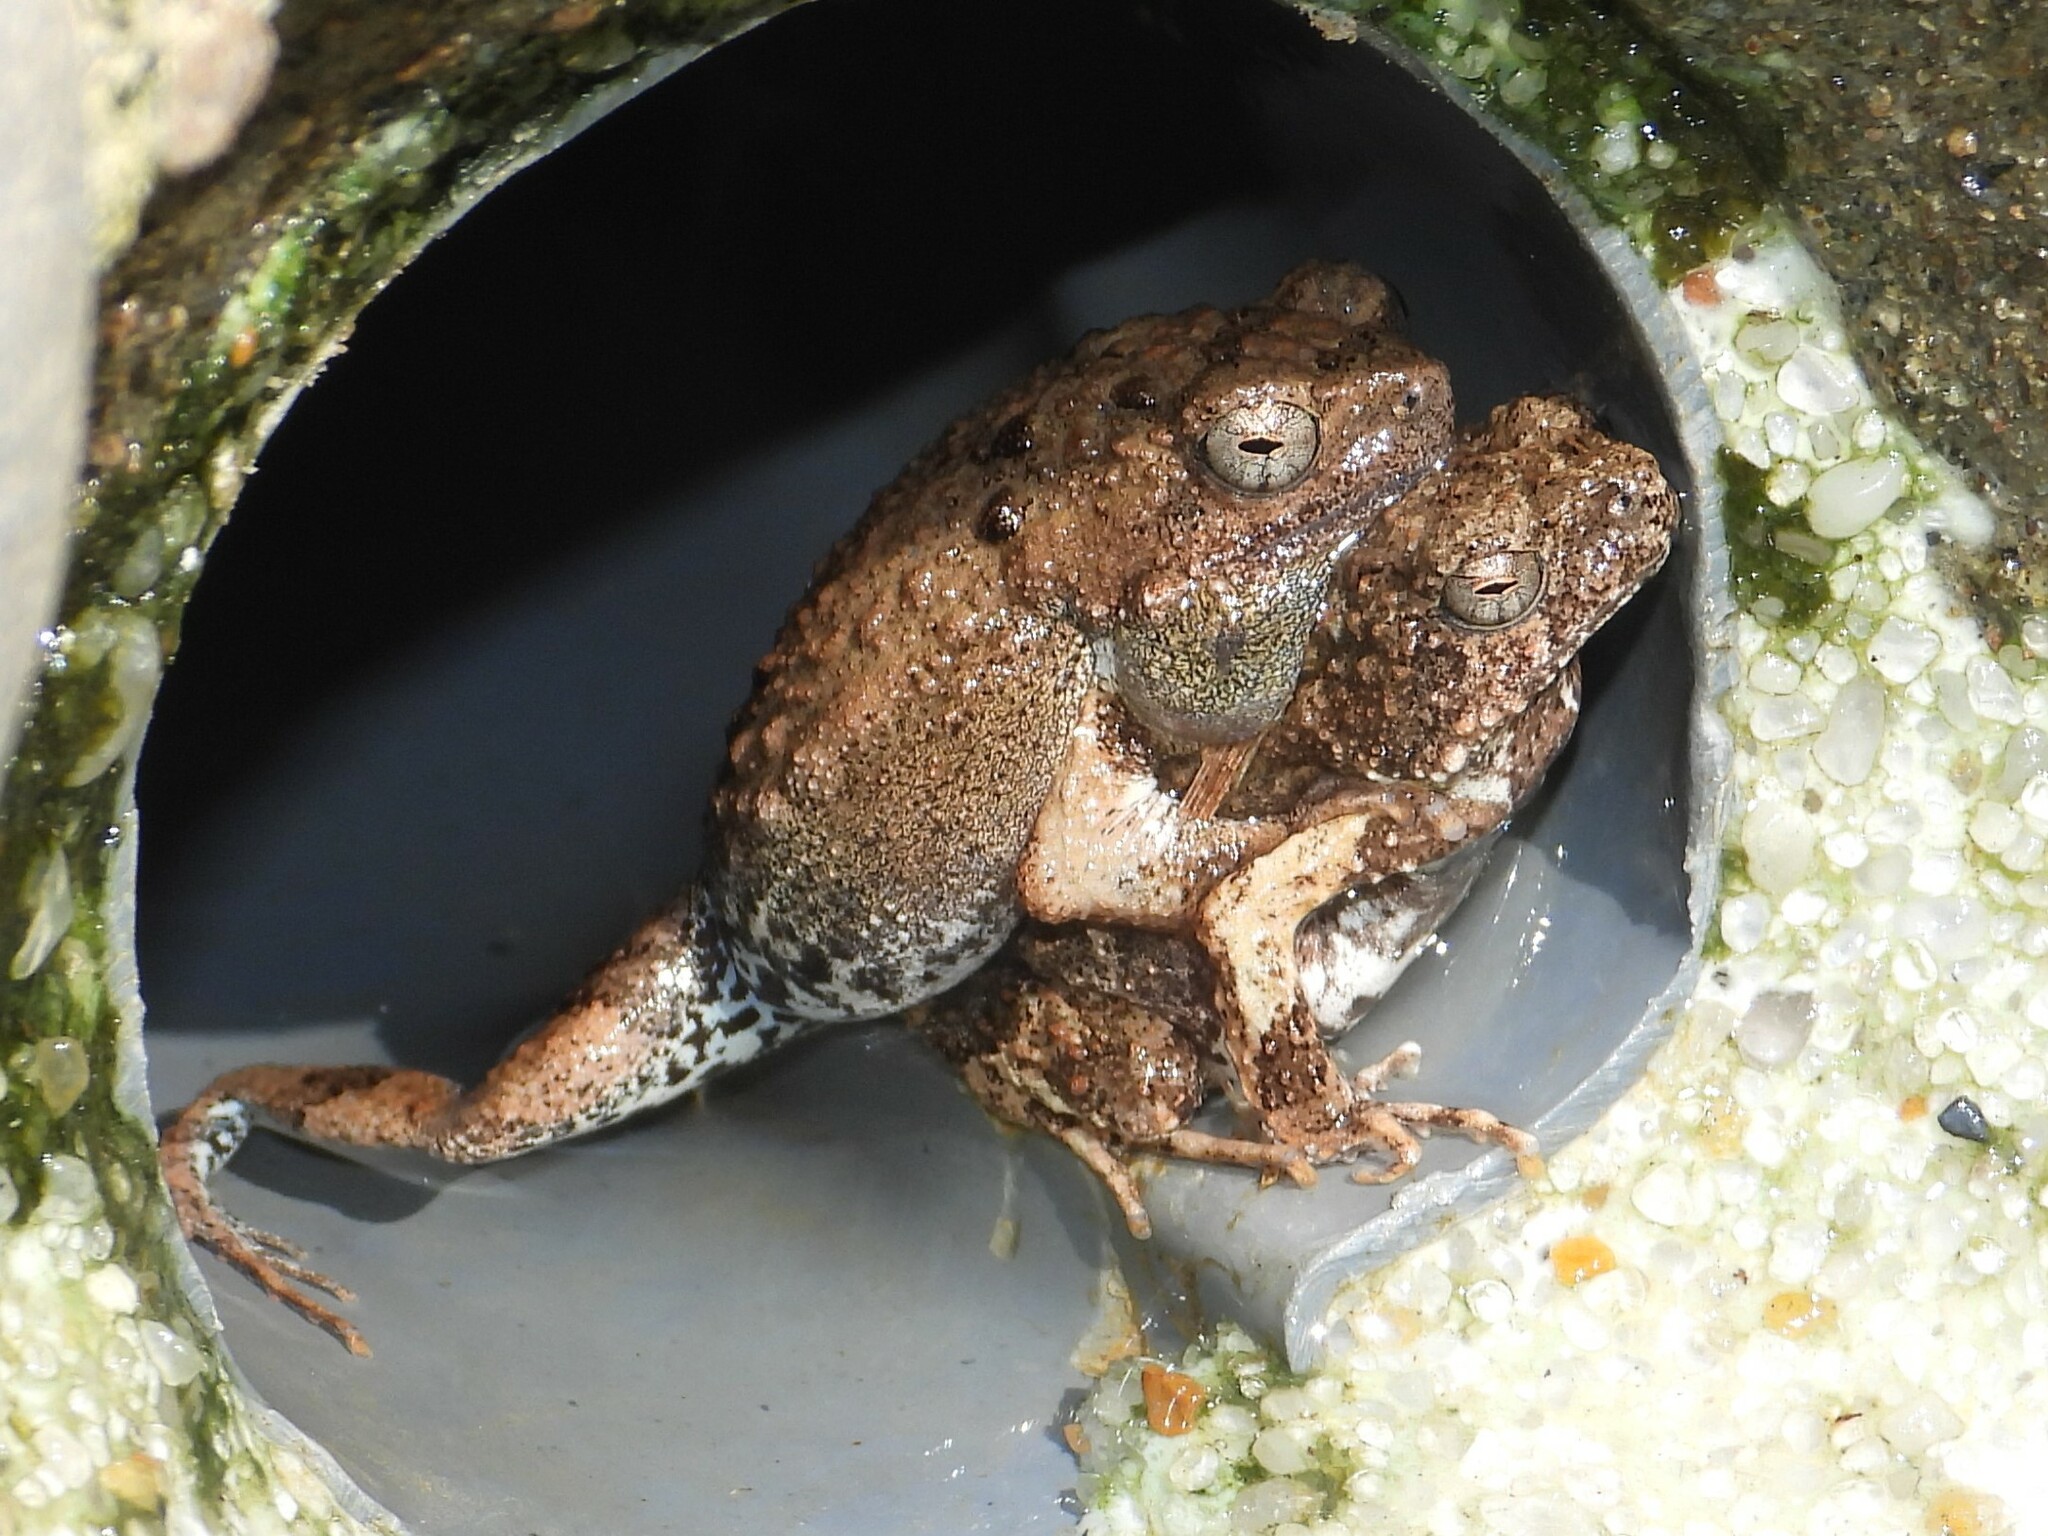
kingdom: Animalia
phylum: Chordata
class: Amphibia
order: Anura
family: Leptodactylidae
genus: Engystomops
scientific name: Engystomops pustulosus
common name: Tungara frog
